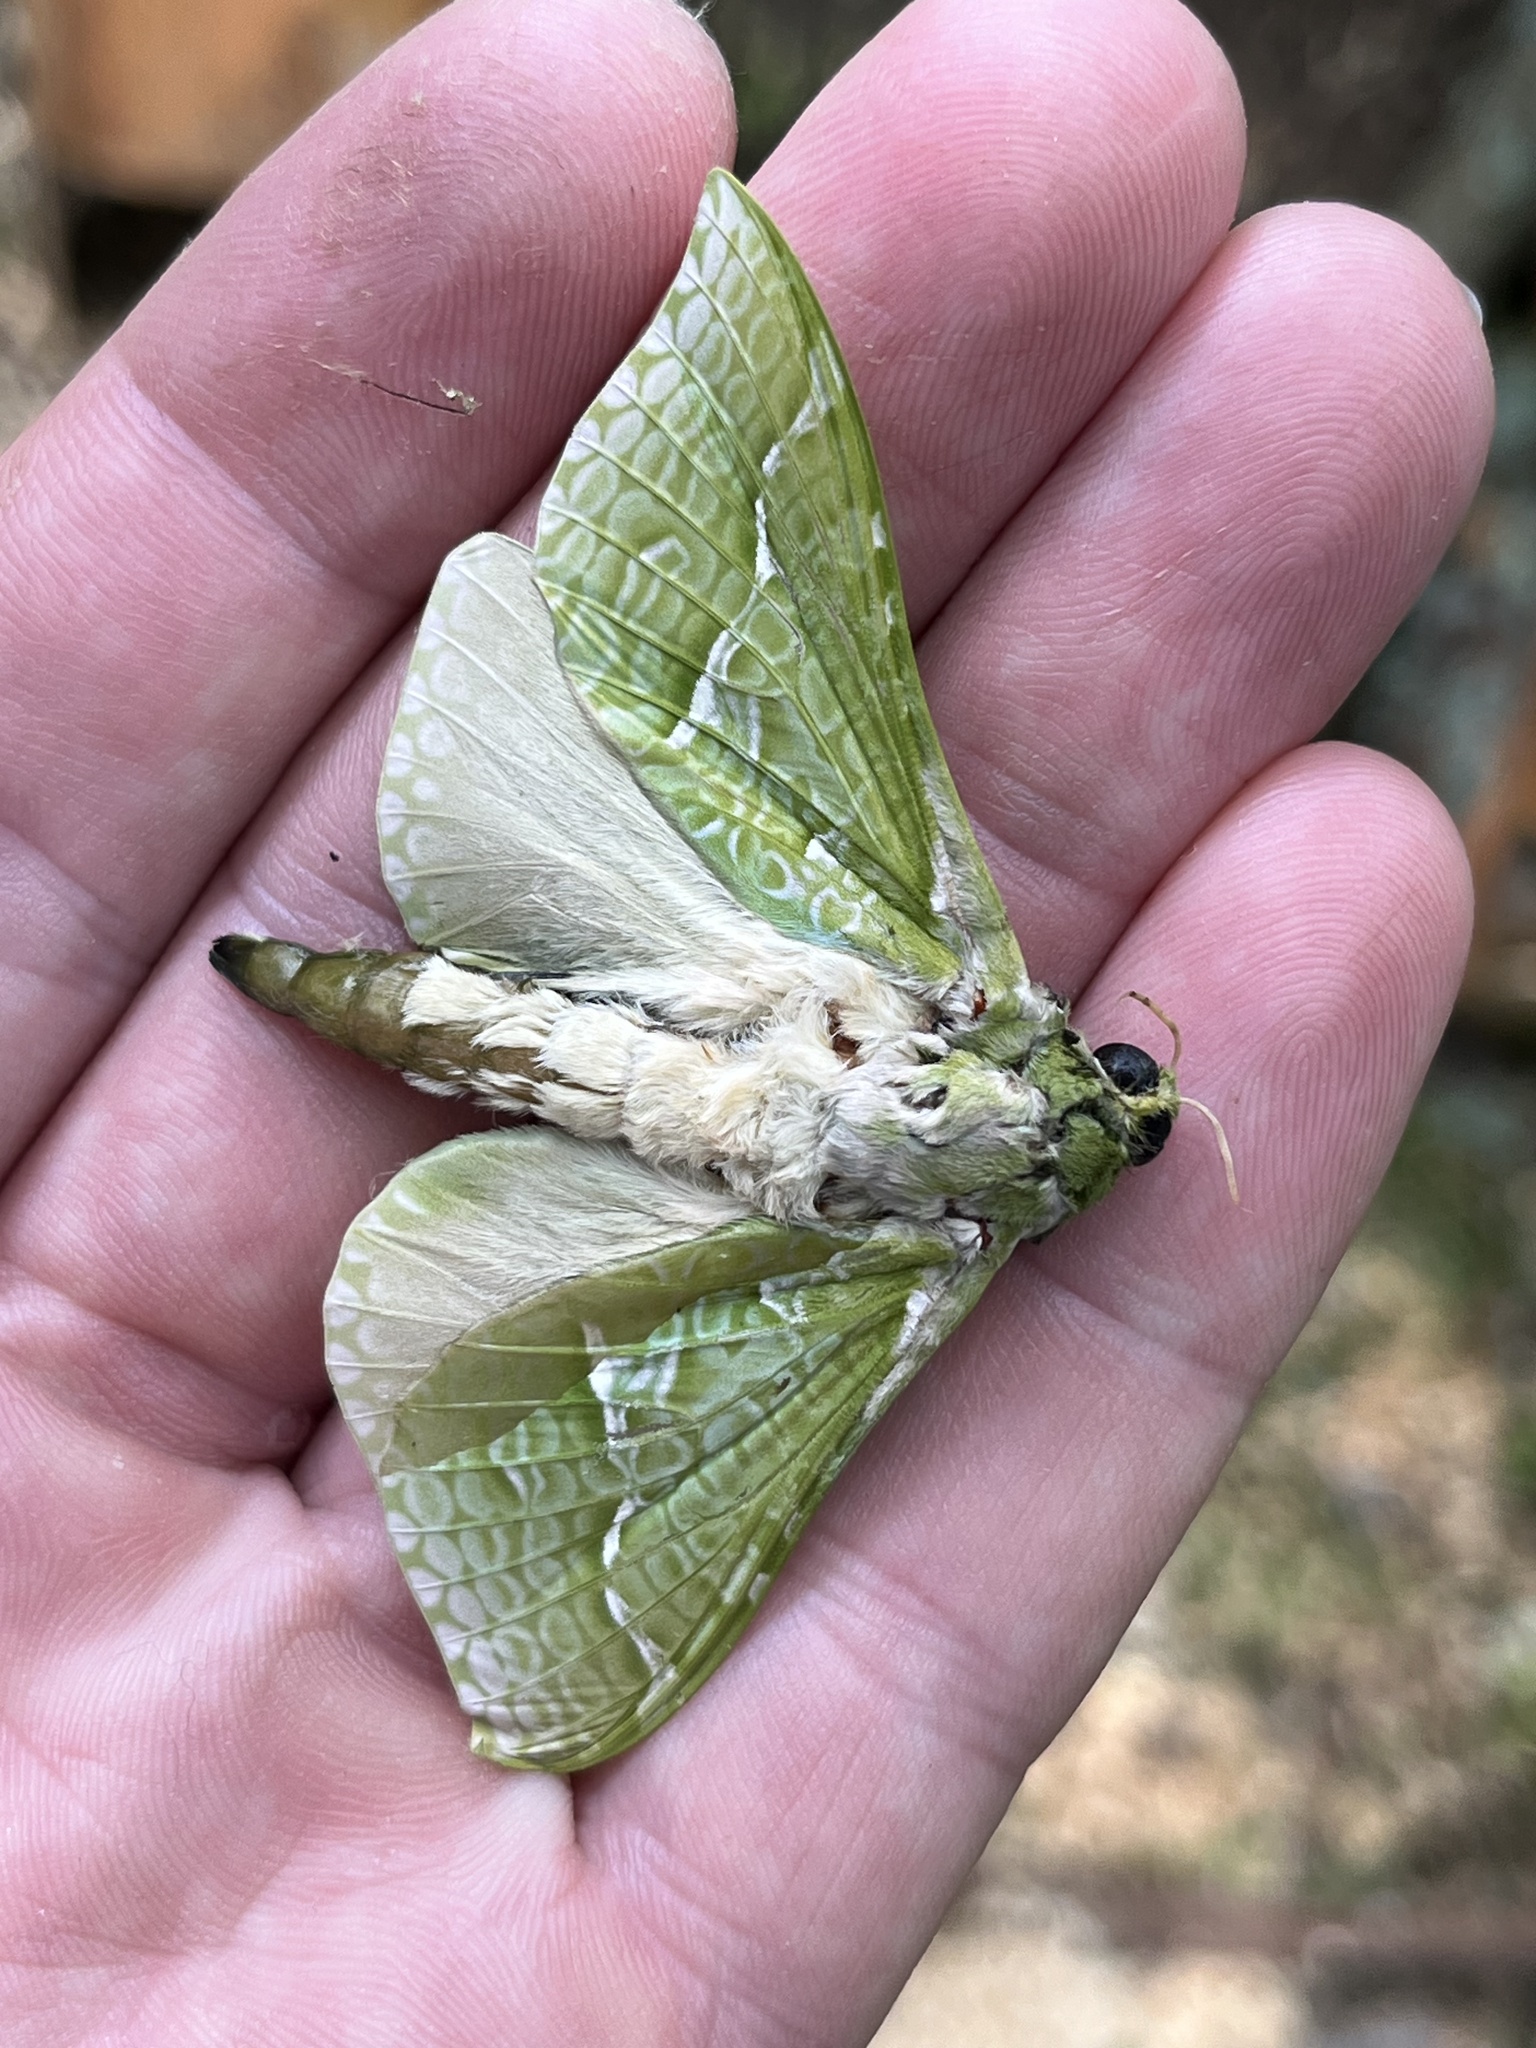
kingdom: Animalia
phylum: Arthropoda
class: Insecta
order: Lepidoptera
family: Hepialidae
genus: Aenetus
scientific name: Aenetus virescens
